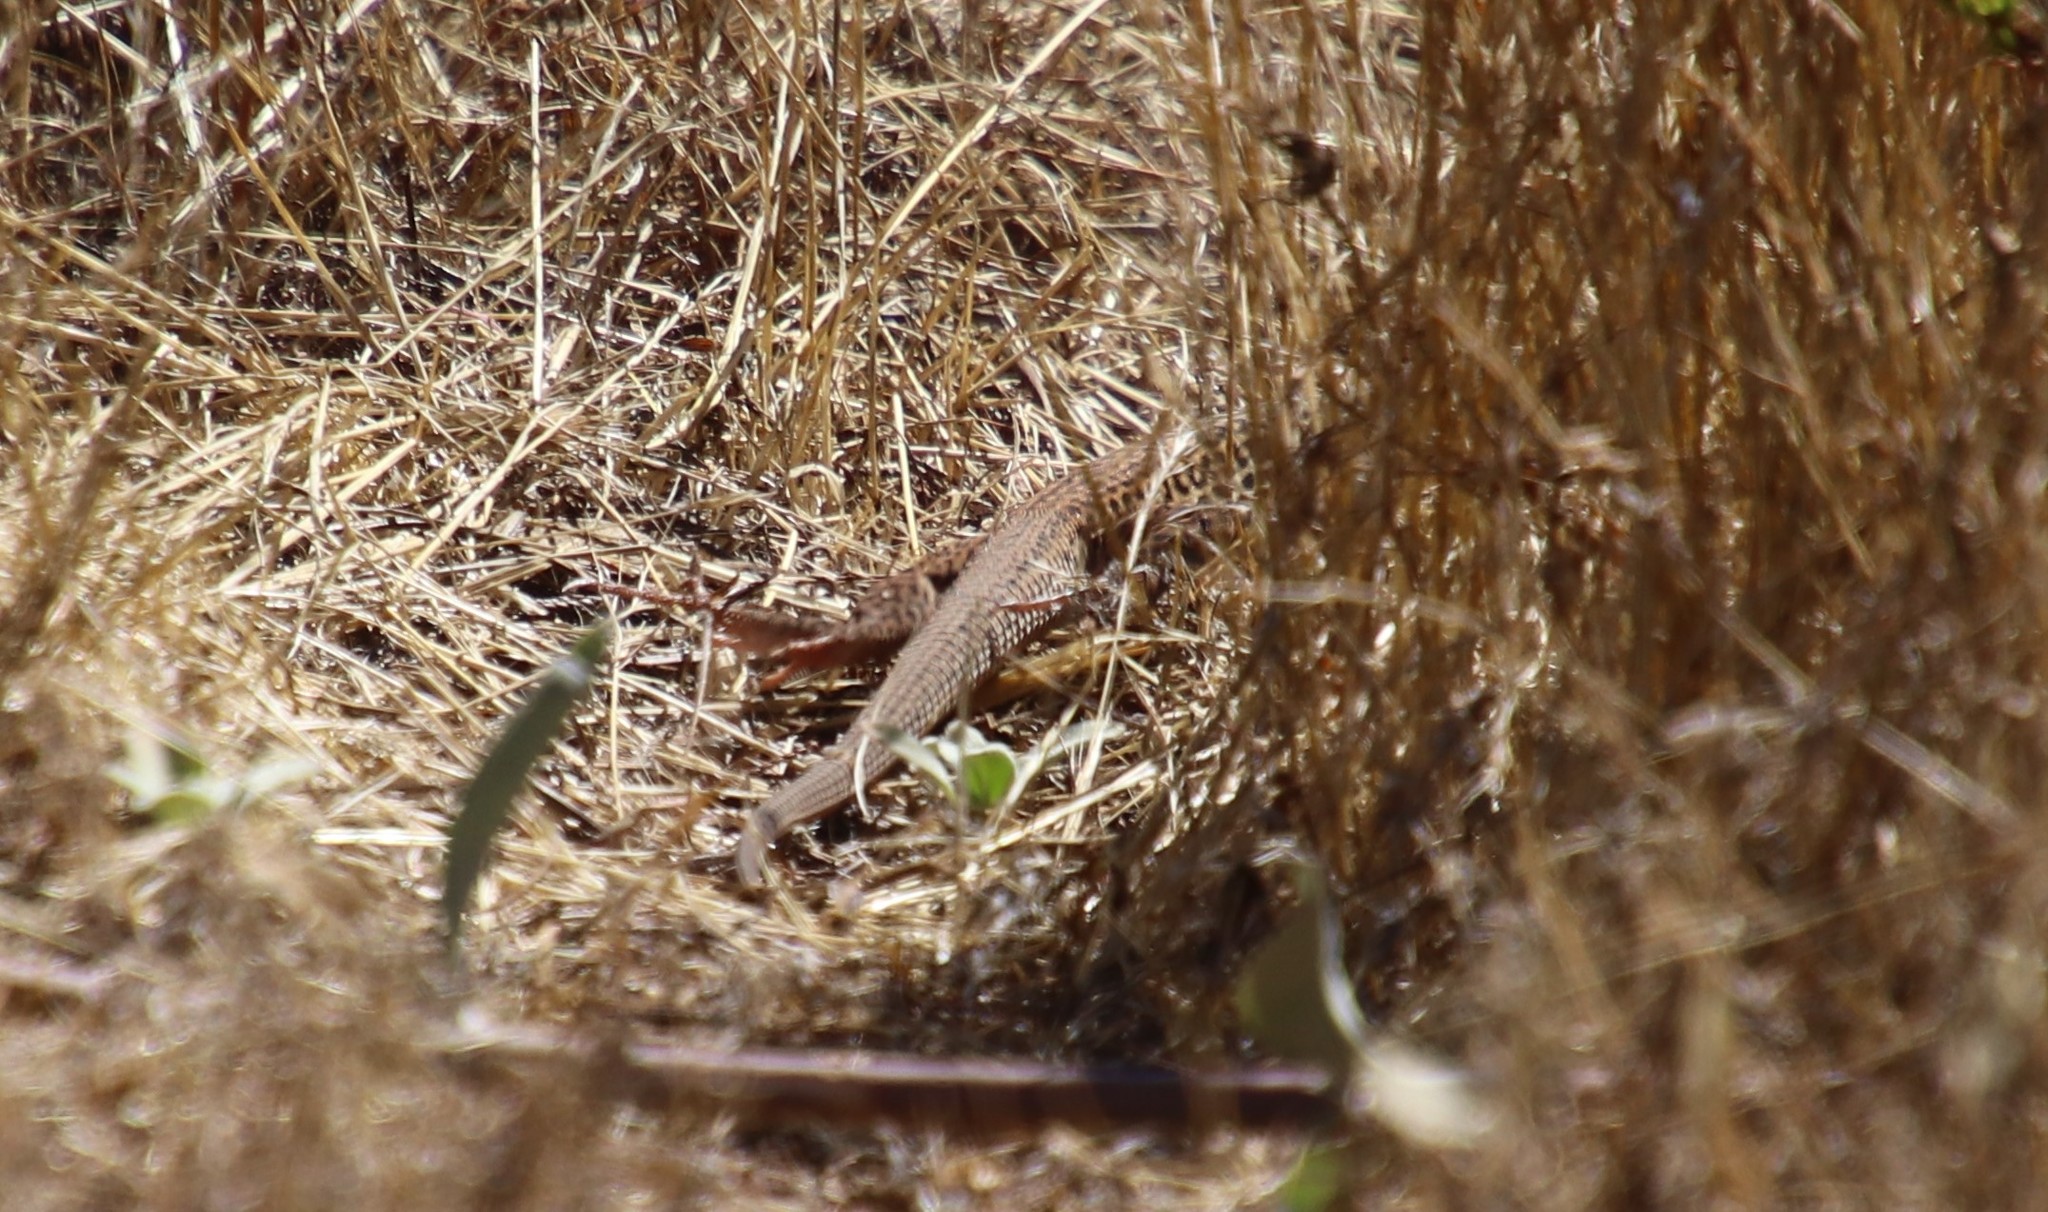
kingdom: Animalia
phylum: Chordata
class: Squamata
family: Teiidae
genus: Aspidoscelis
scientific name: Aspidoscelis tigris
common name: Tiger whiptail
